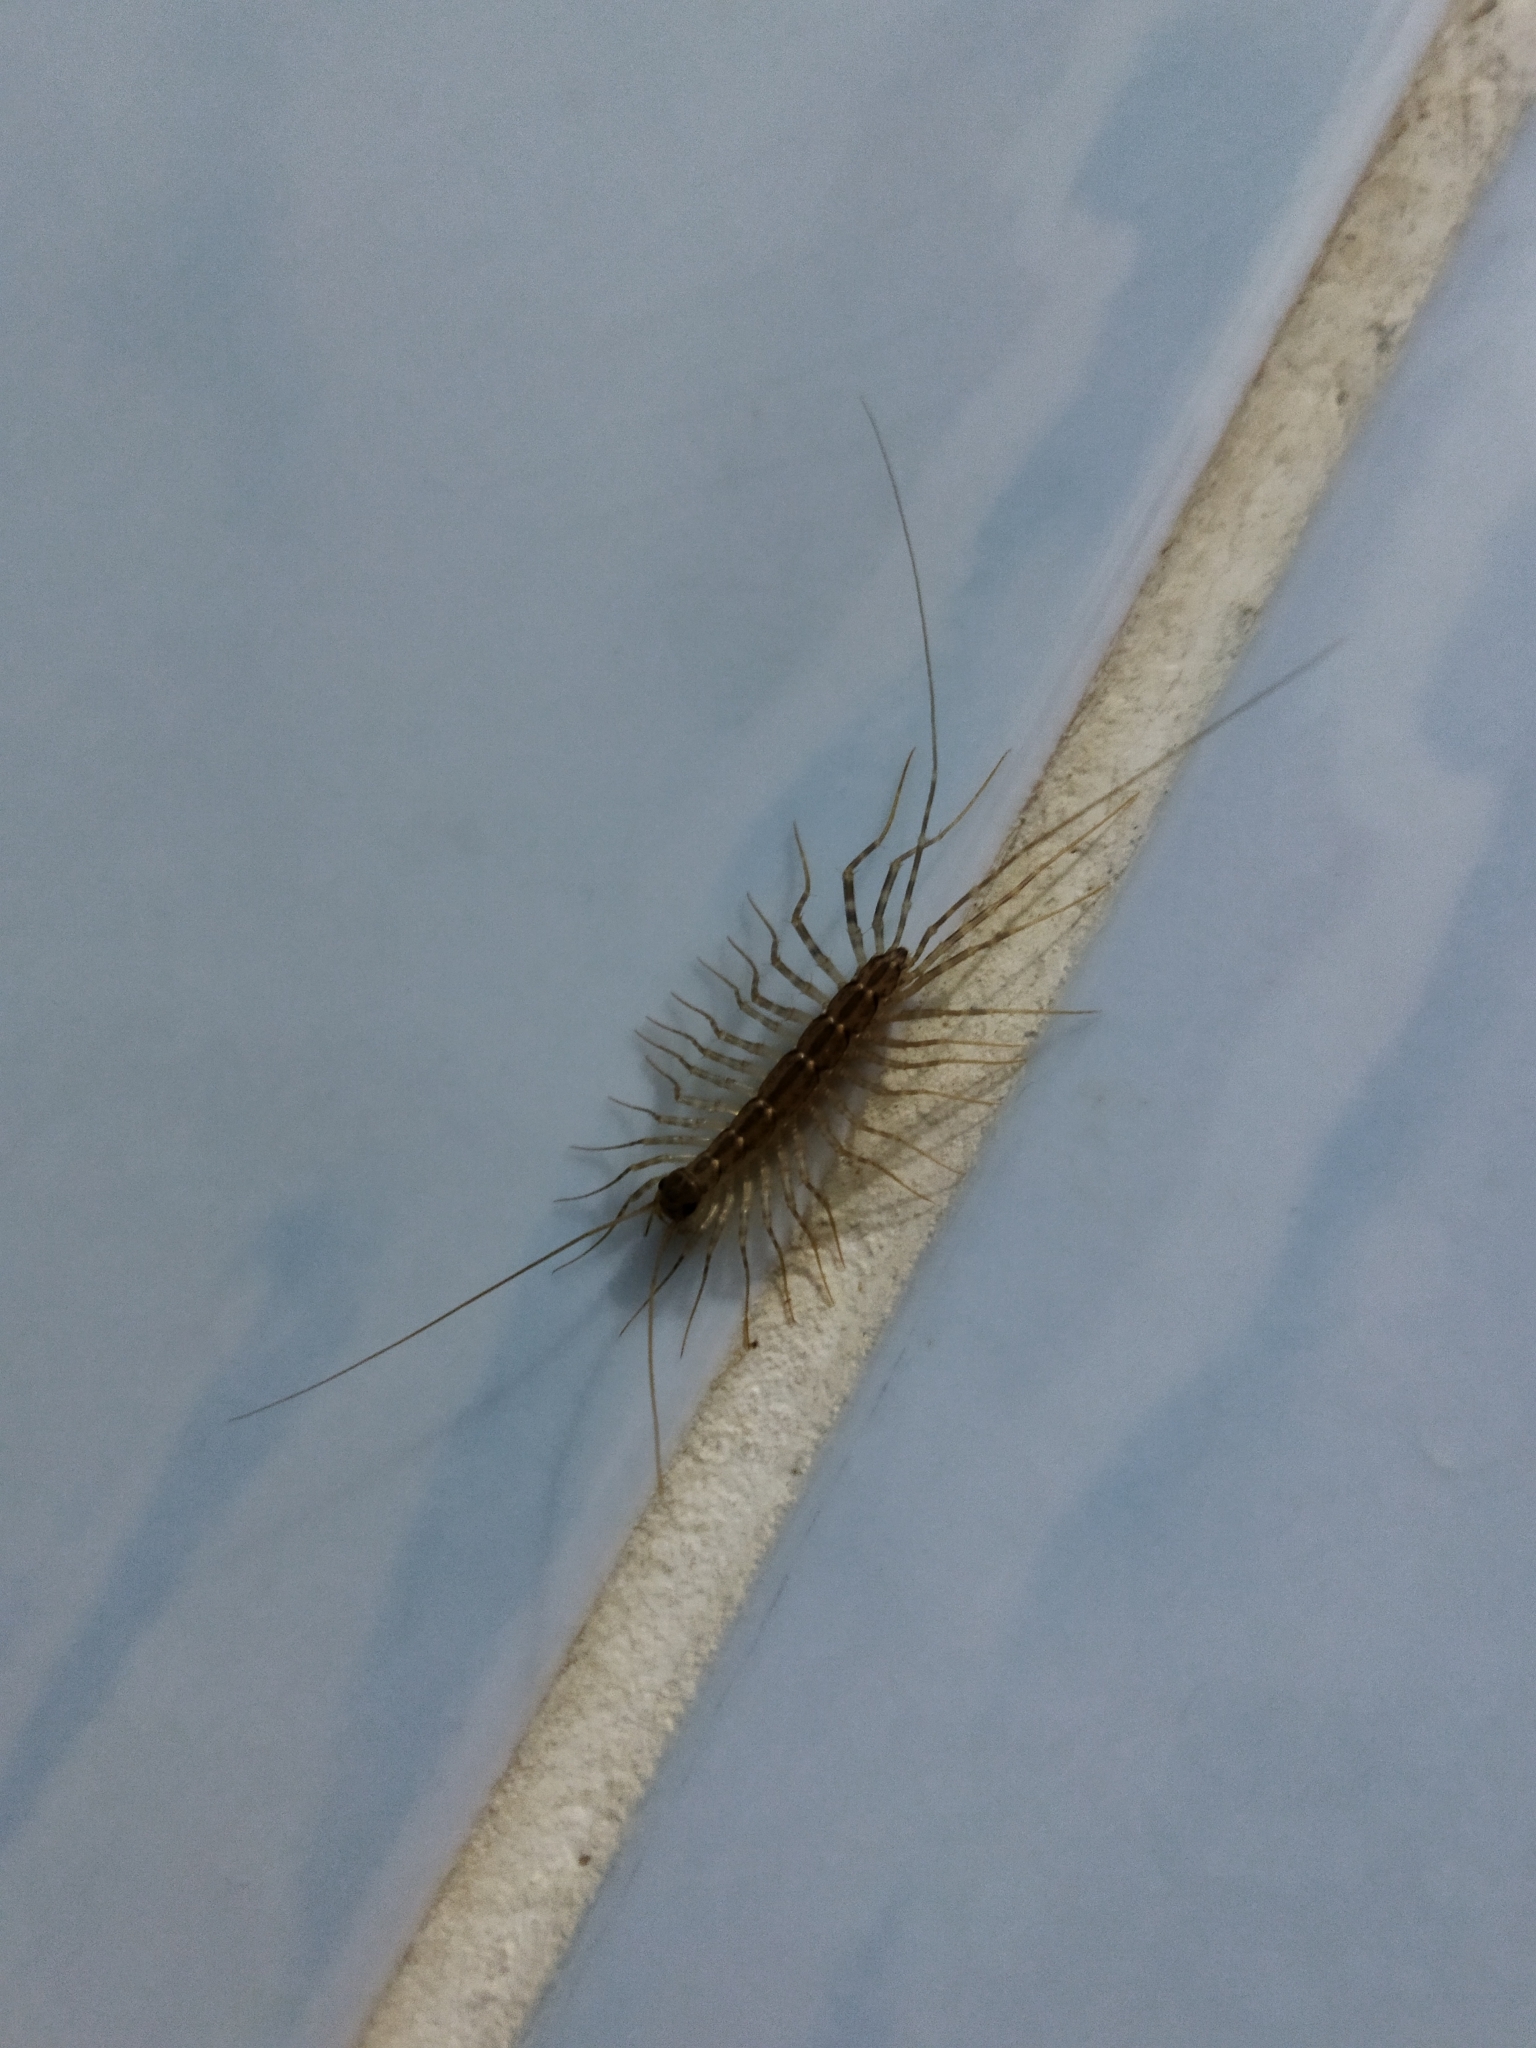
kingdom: Animalia
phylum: Arthropoda
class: Chilopoda
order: Scutigeromorpha
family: Scutigeridae
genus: Scutigera
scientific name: Scutigera coleoptrata
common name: House centipede
